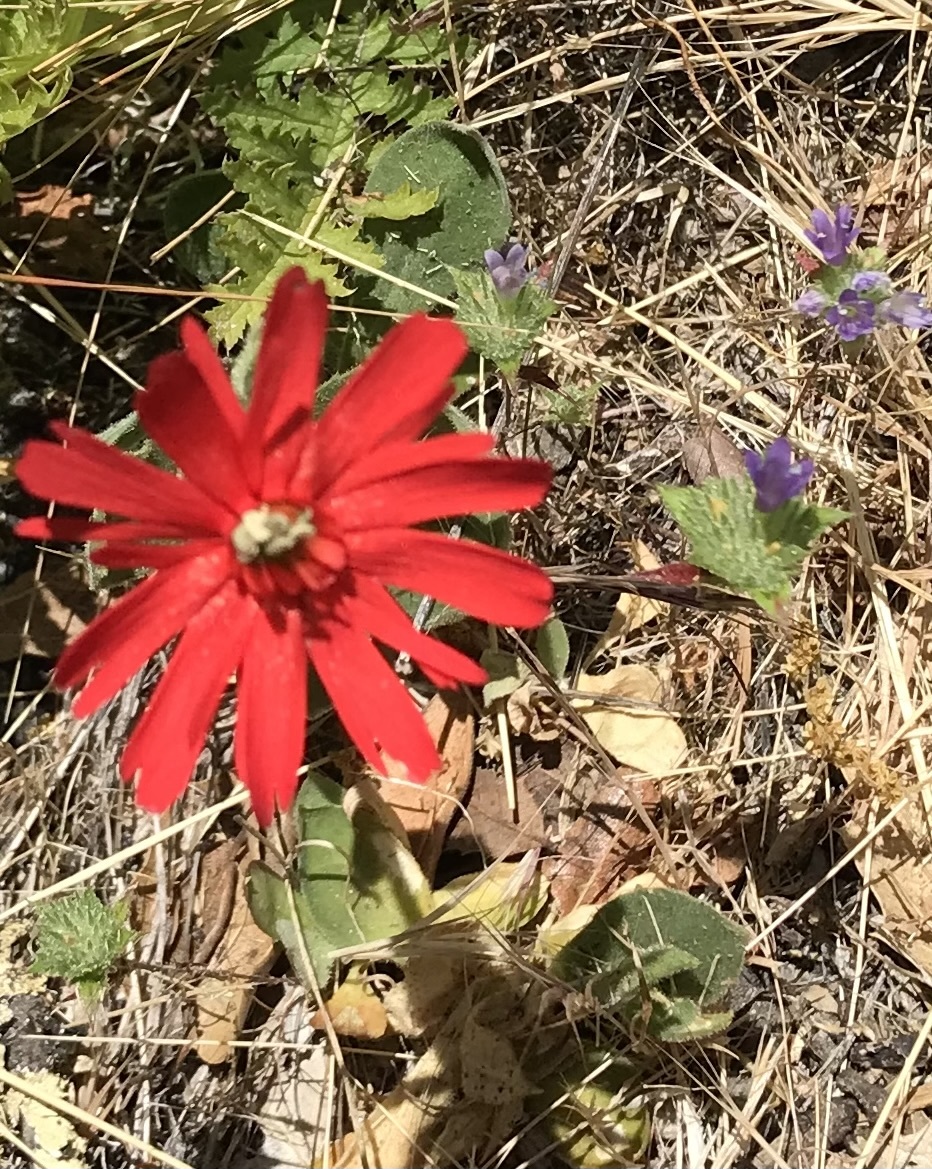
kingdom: Plantae
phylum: Tracheophyta
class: Magnoliopsida
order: Caryophyllales
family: Caryophyllaceae
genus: Silene
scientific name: Silene laciniata
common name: Indian-pink
